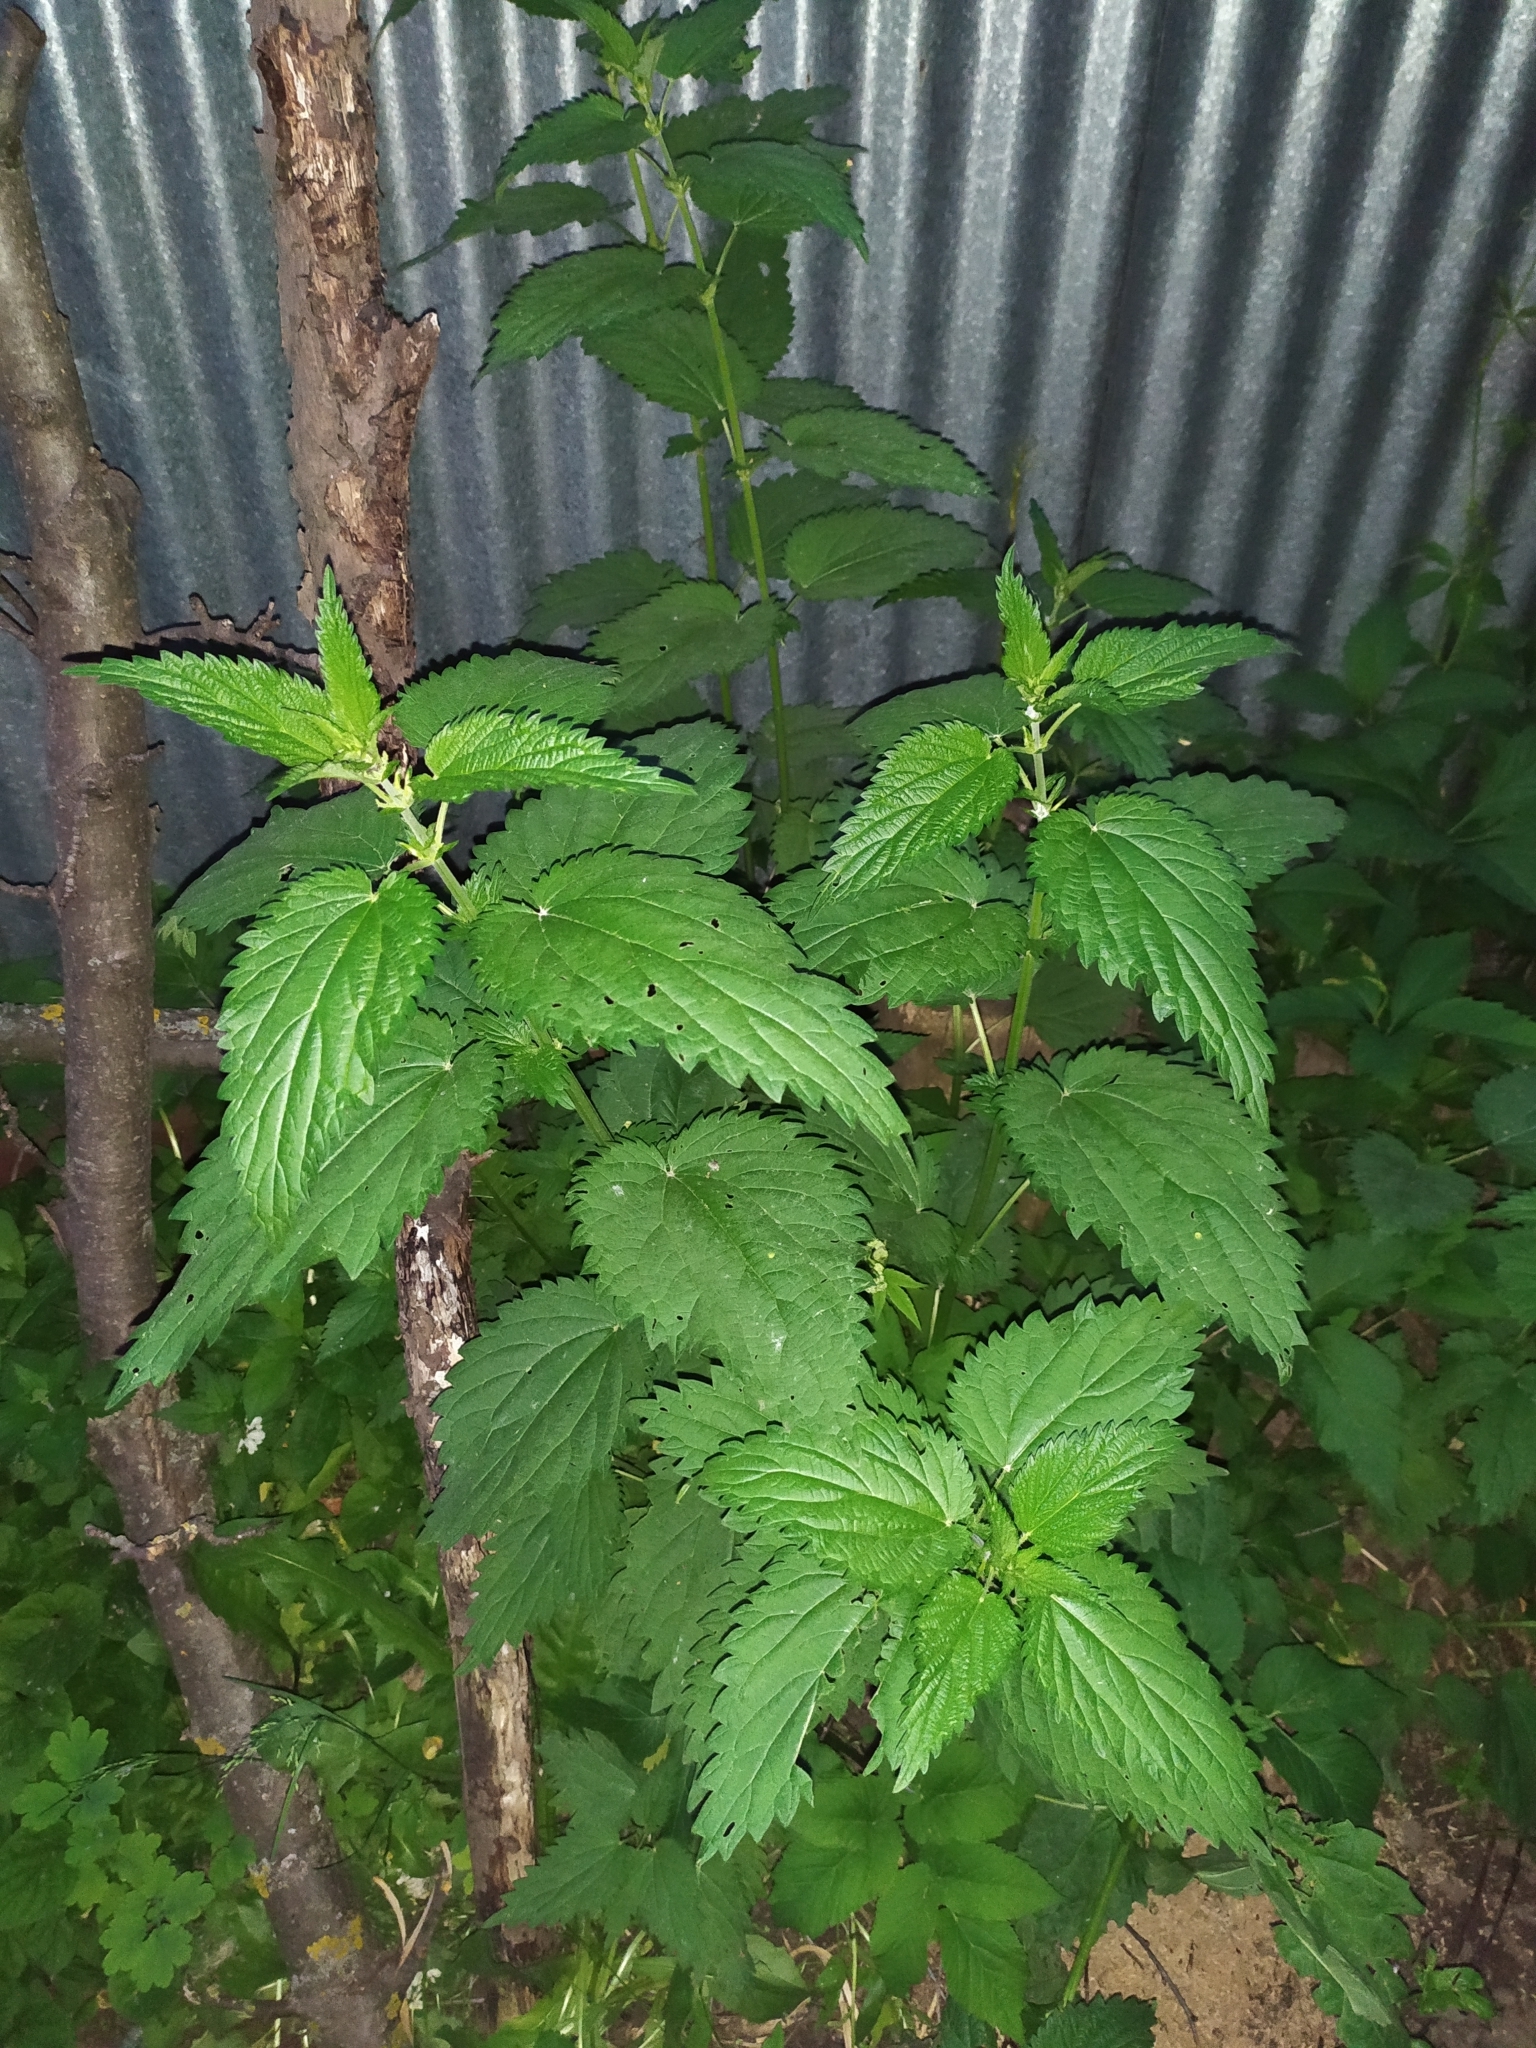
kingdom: Plantae
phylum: Tracheophyta
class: Magnoliopsida
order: Rosales
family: Urticaceae
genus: Urtica
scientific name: Urtica dioica
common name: Common nettle
